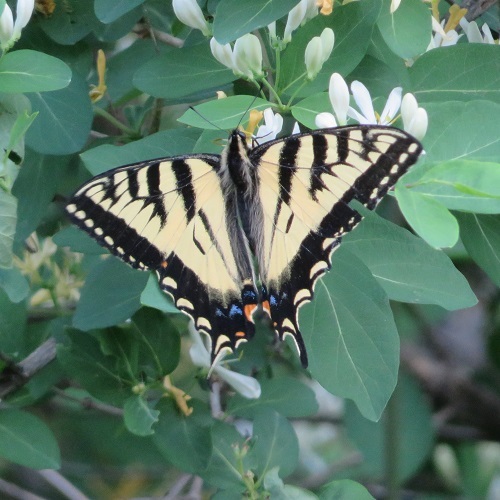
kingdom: Animalia
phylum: Arthropoda
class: Insecta
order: Lepidoptera
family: Papilionidae
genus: Papilio
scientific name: Papilio canadensis
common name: Canadian tiger swallowtail
